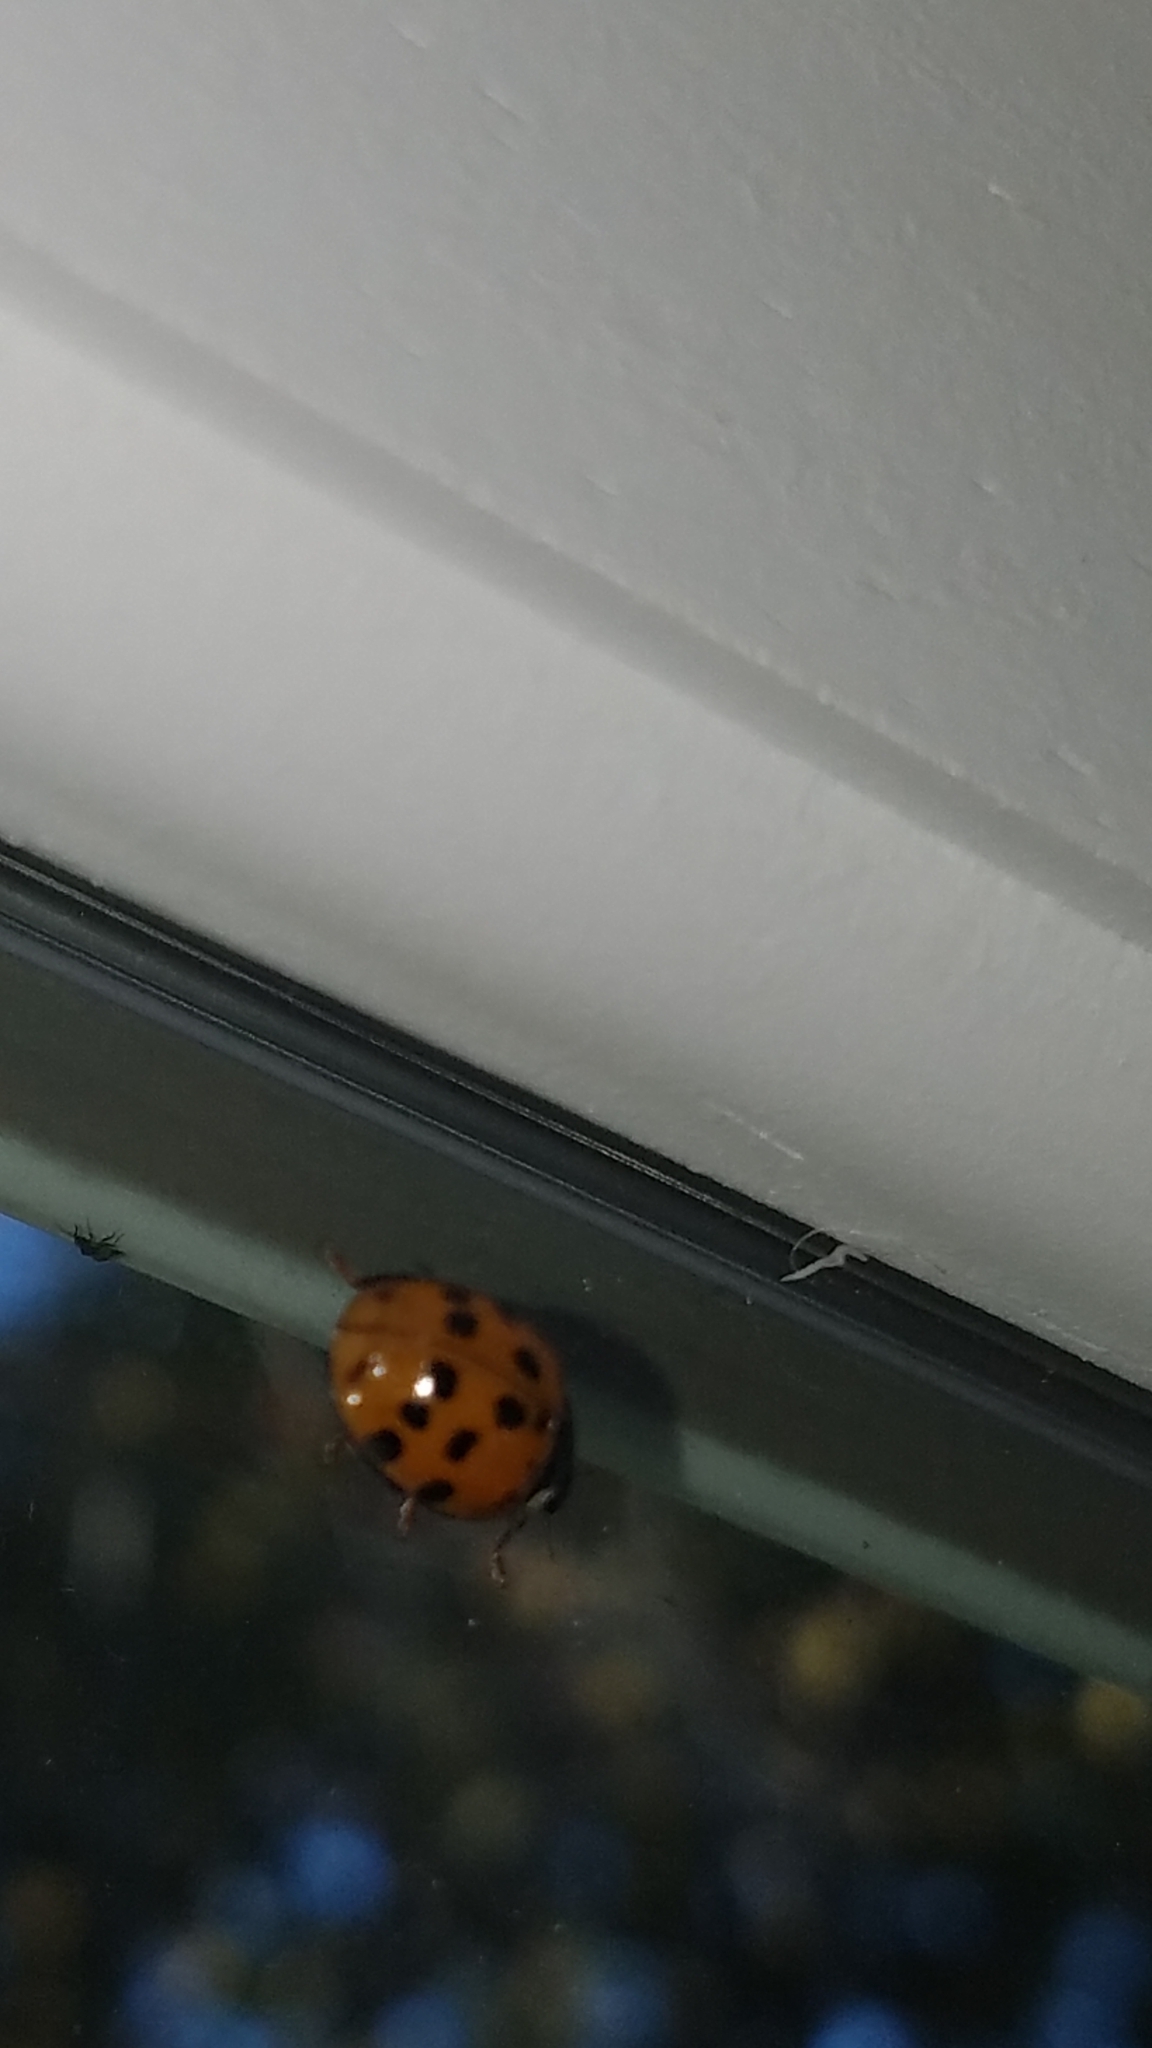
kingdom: Animalia
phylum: Arthropoda
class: Insecta
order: Coleoptera
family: Coccinellidae
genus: Harmonia
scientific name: Harmonia axyridis
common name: Harlequin ladybird
